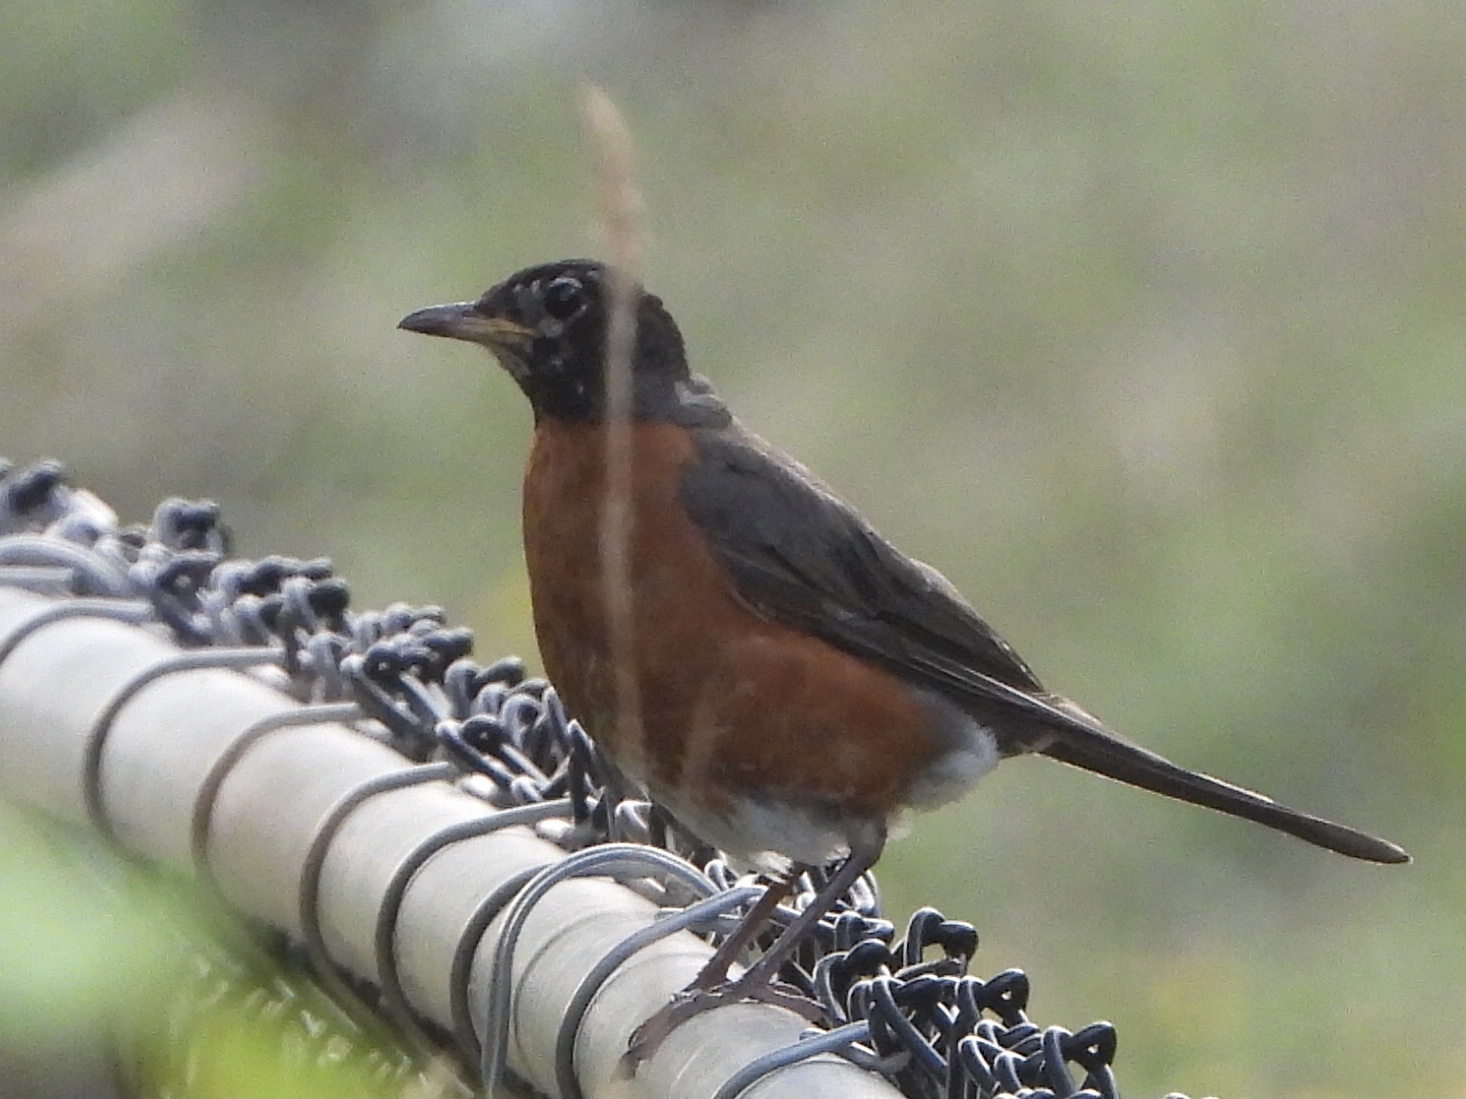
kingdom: Animalia
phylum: Chordata
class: Aves
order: Passeriformes
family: Turdidae
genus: Turdus
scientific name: Turdus migratorius
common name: American robin
